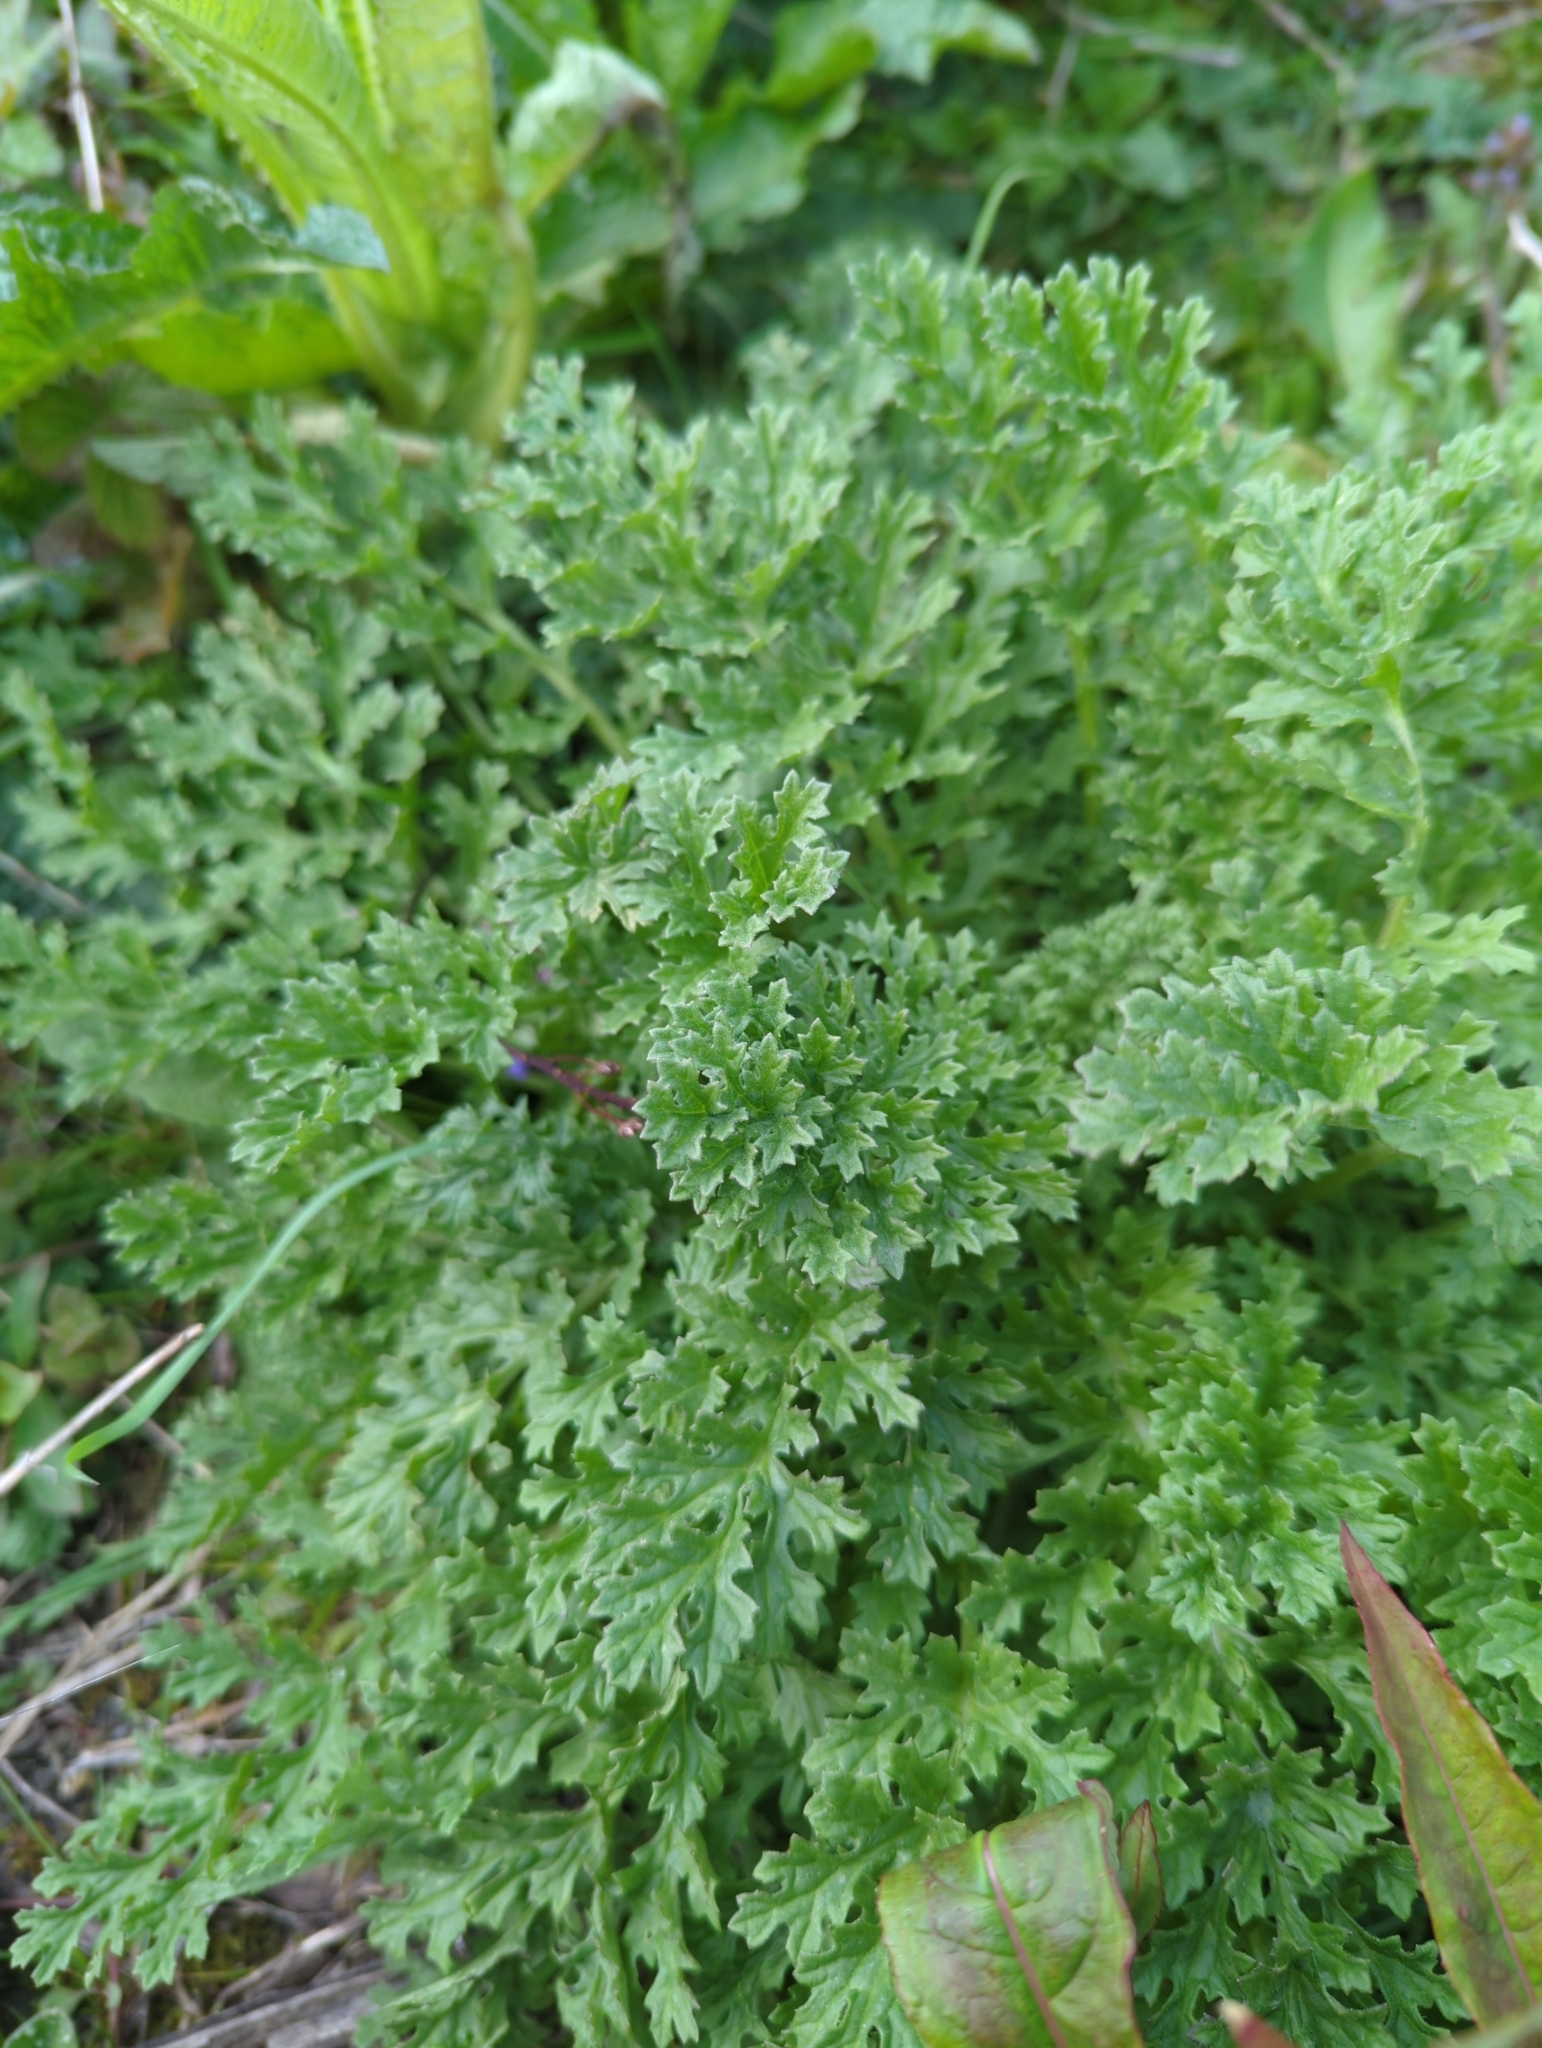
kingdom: Plantae
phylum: Tracheophyta
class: Magnoliopsida
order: Asterales
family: Asteraceae
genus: Jacobaea
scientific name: Jacobaea vulgaris
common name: Stinking willie
